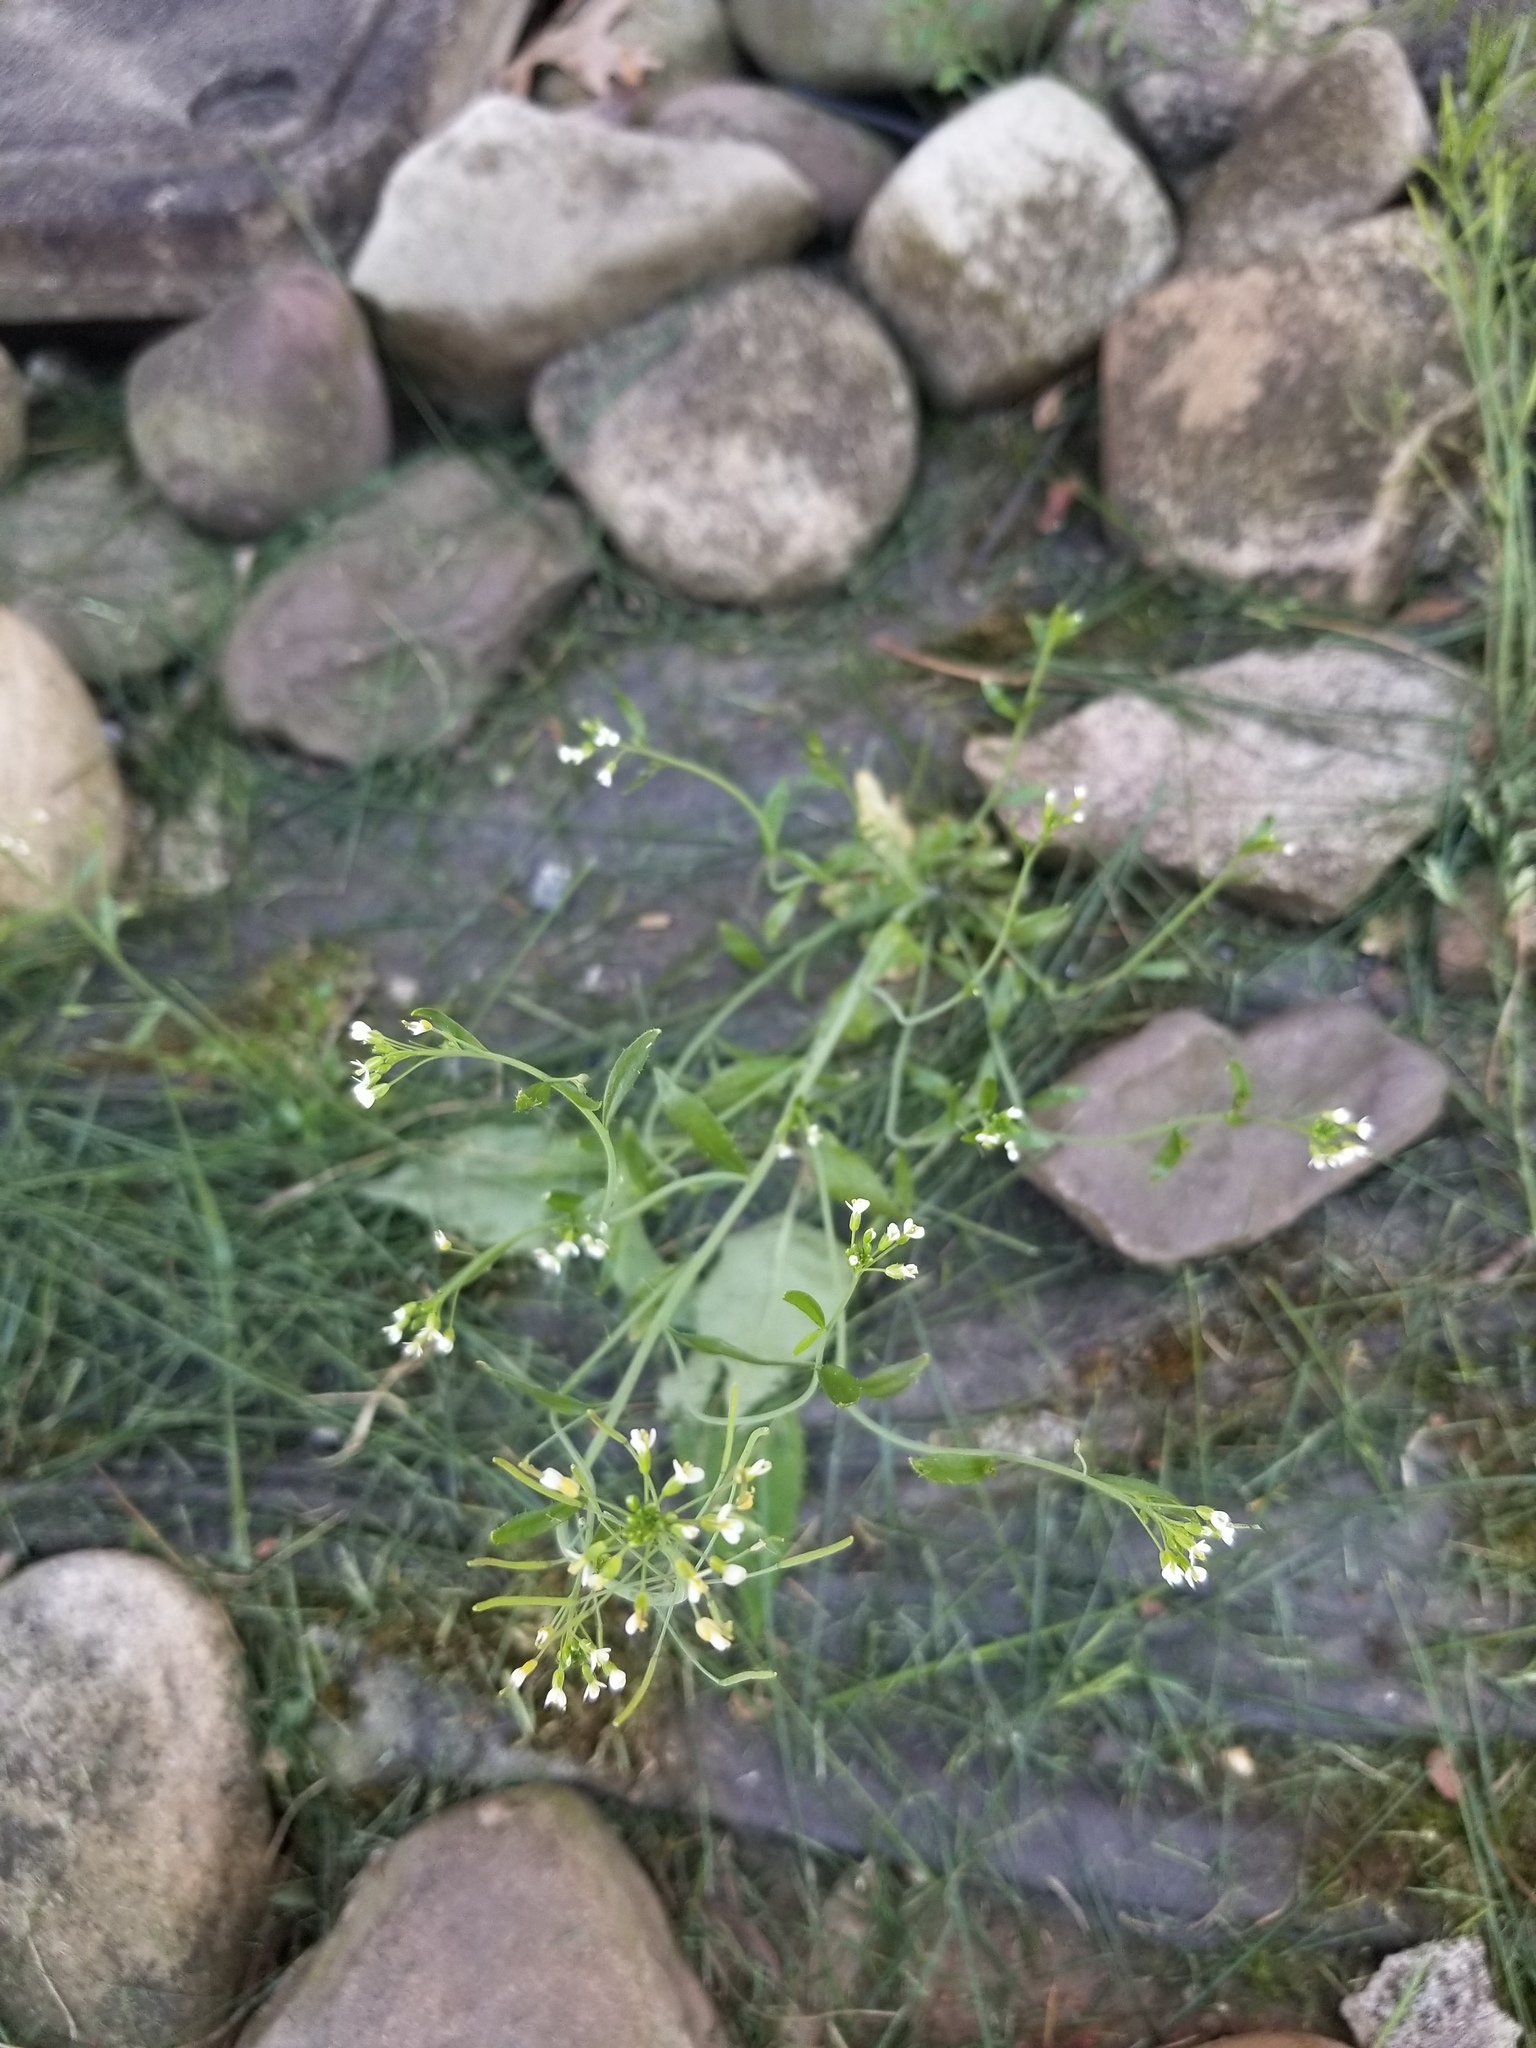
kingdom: Plantae
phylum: Tracheophyta
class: Magnoliopsida
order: Brassicales
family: Brassicaceae
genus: Arabidopsis
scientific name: Arabidopsis thaliana
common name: Thale cress
